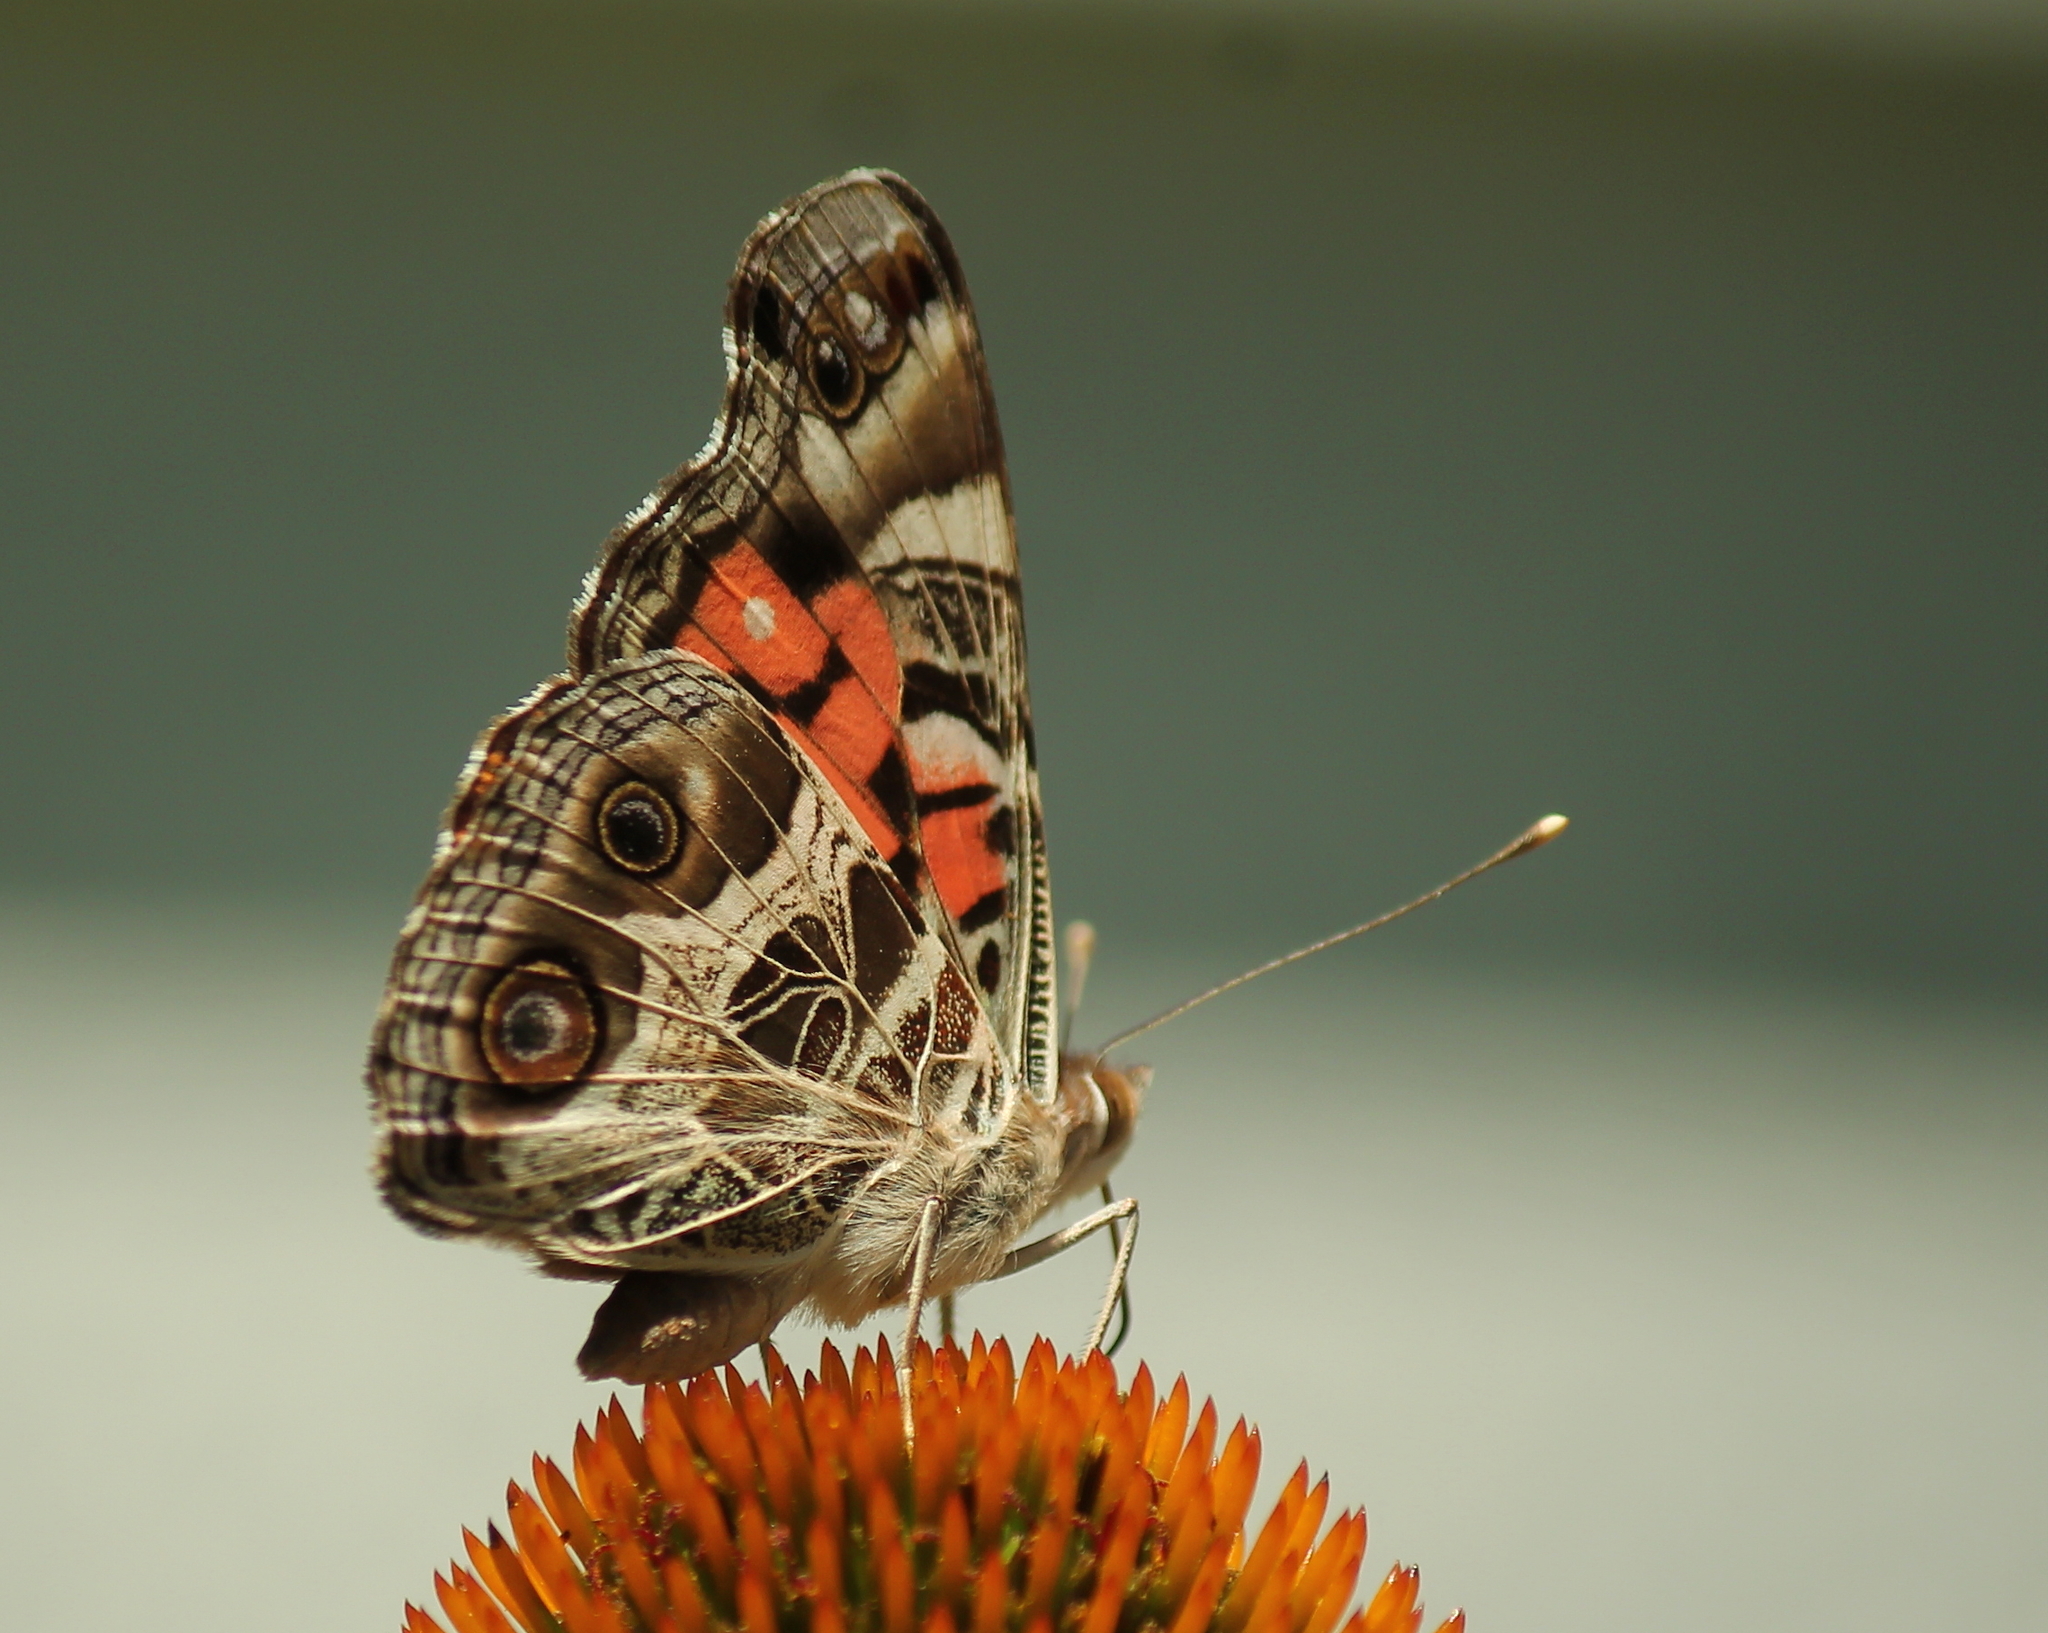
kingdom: Animalia
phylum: Arthropoda
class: Insecta
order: Lepidoptera
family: Nymphalidae
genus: Vanessa
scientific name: Vanessa virginiensis
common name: American lady
